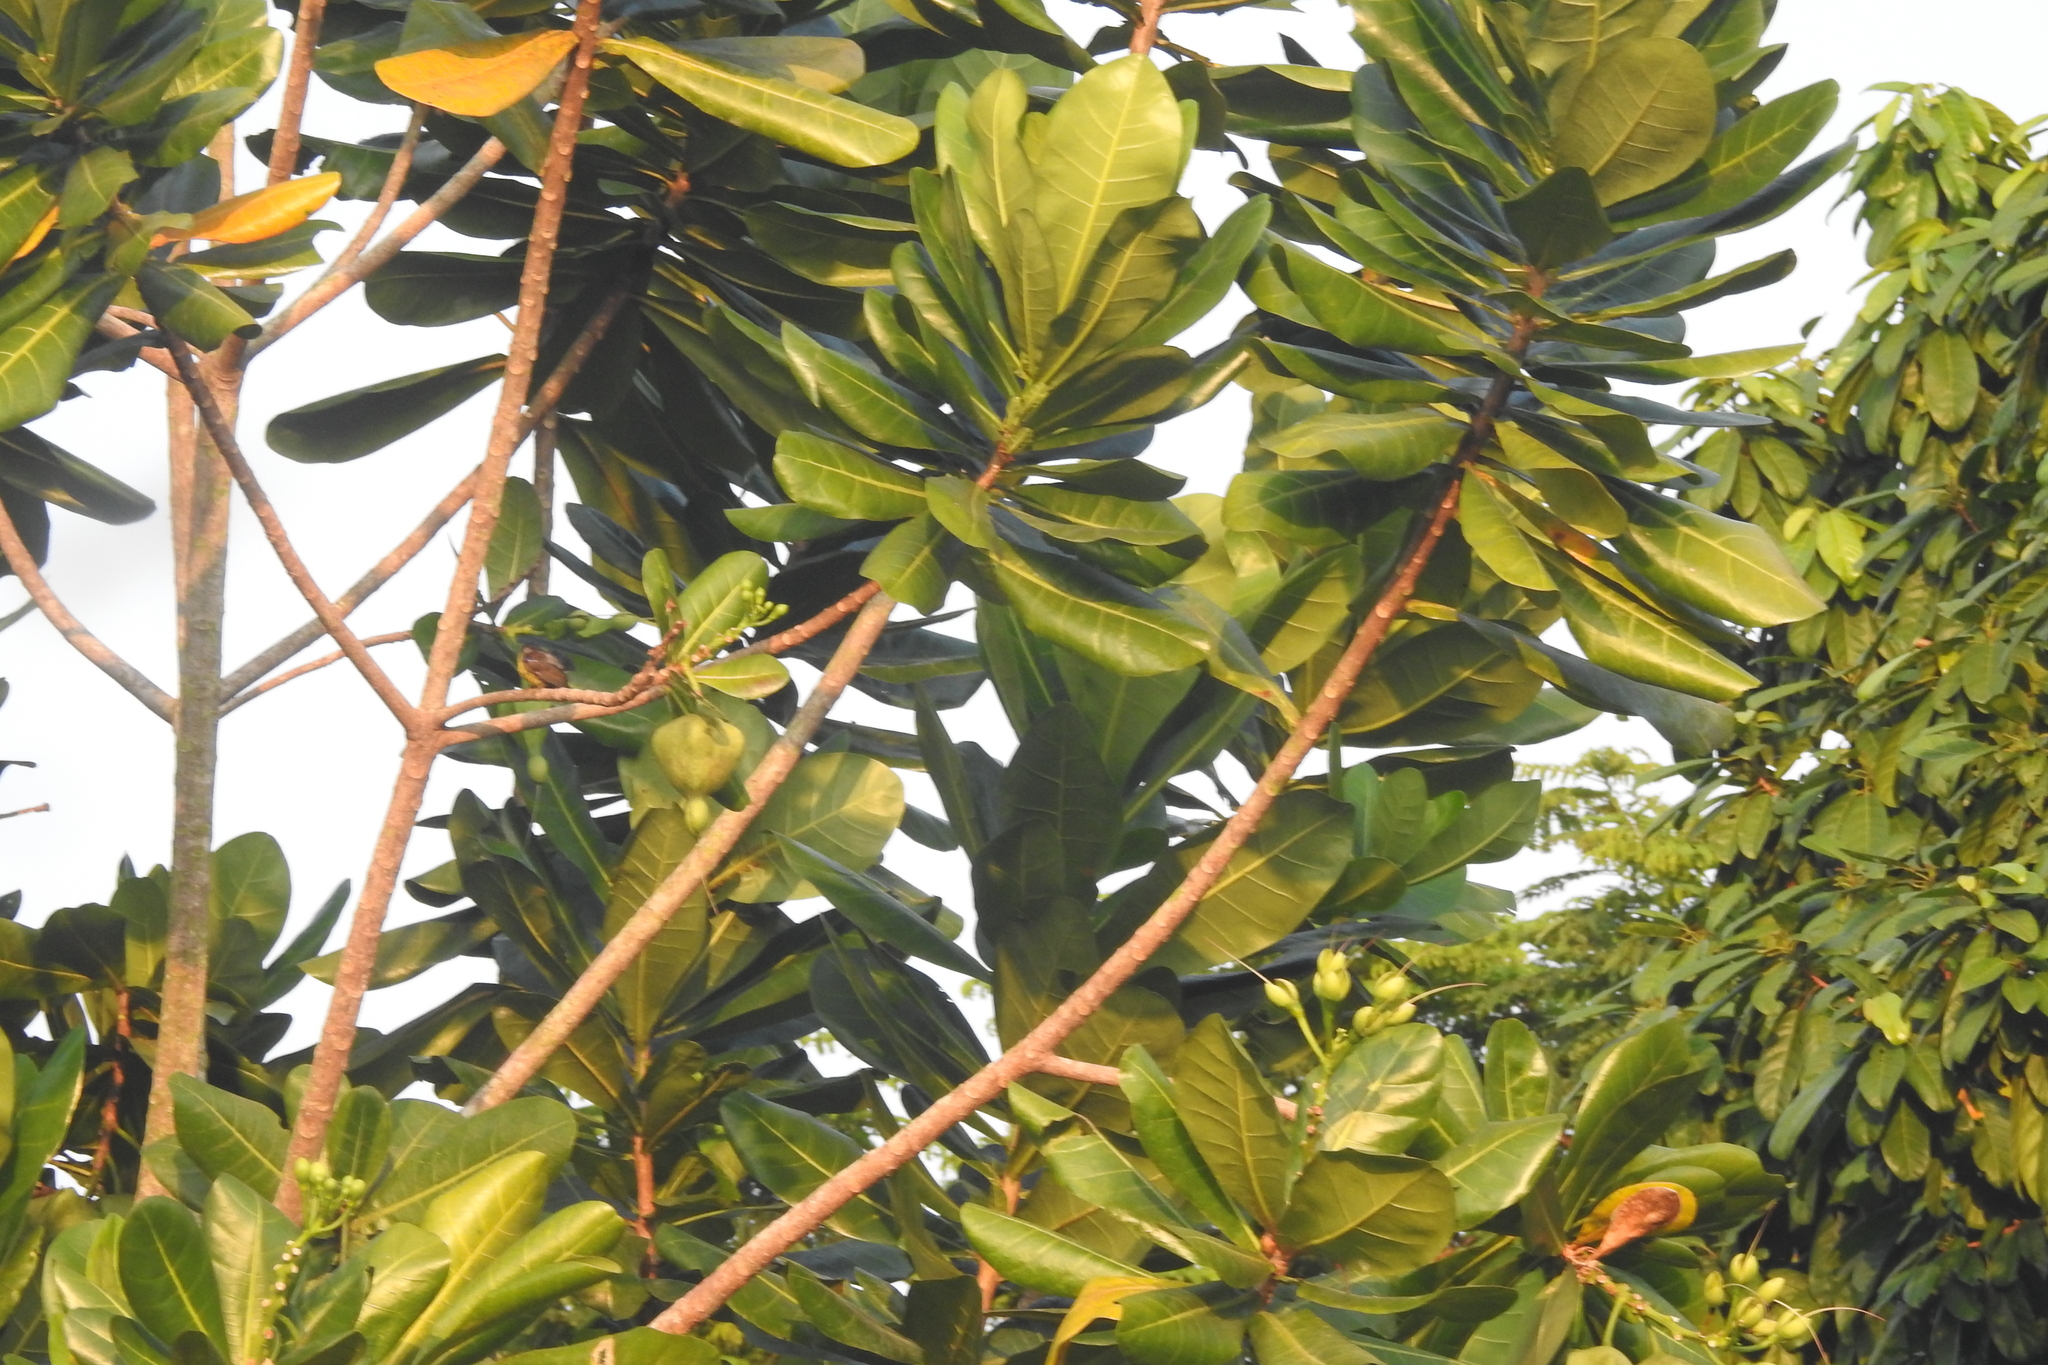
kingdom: Plantae
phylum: Tracheophyta
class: Magnoliopsida
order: Ericales
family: Lecythidaceae
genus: Barringtonia
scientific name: Barringtonia asiatica
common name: Mango-pine
